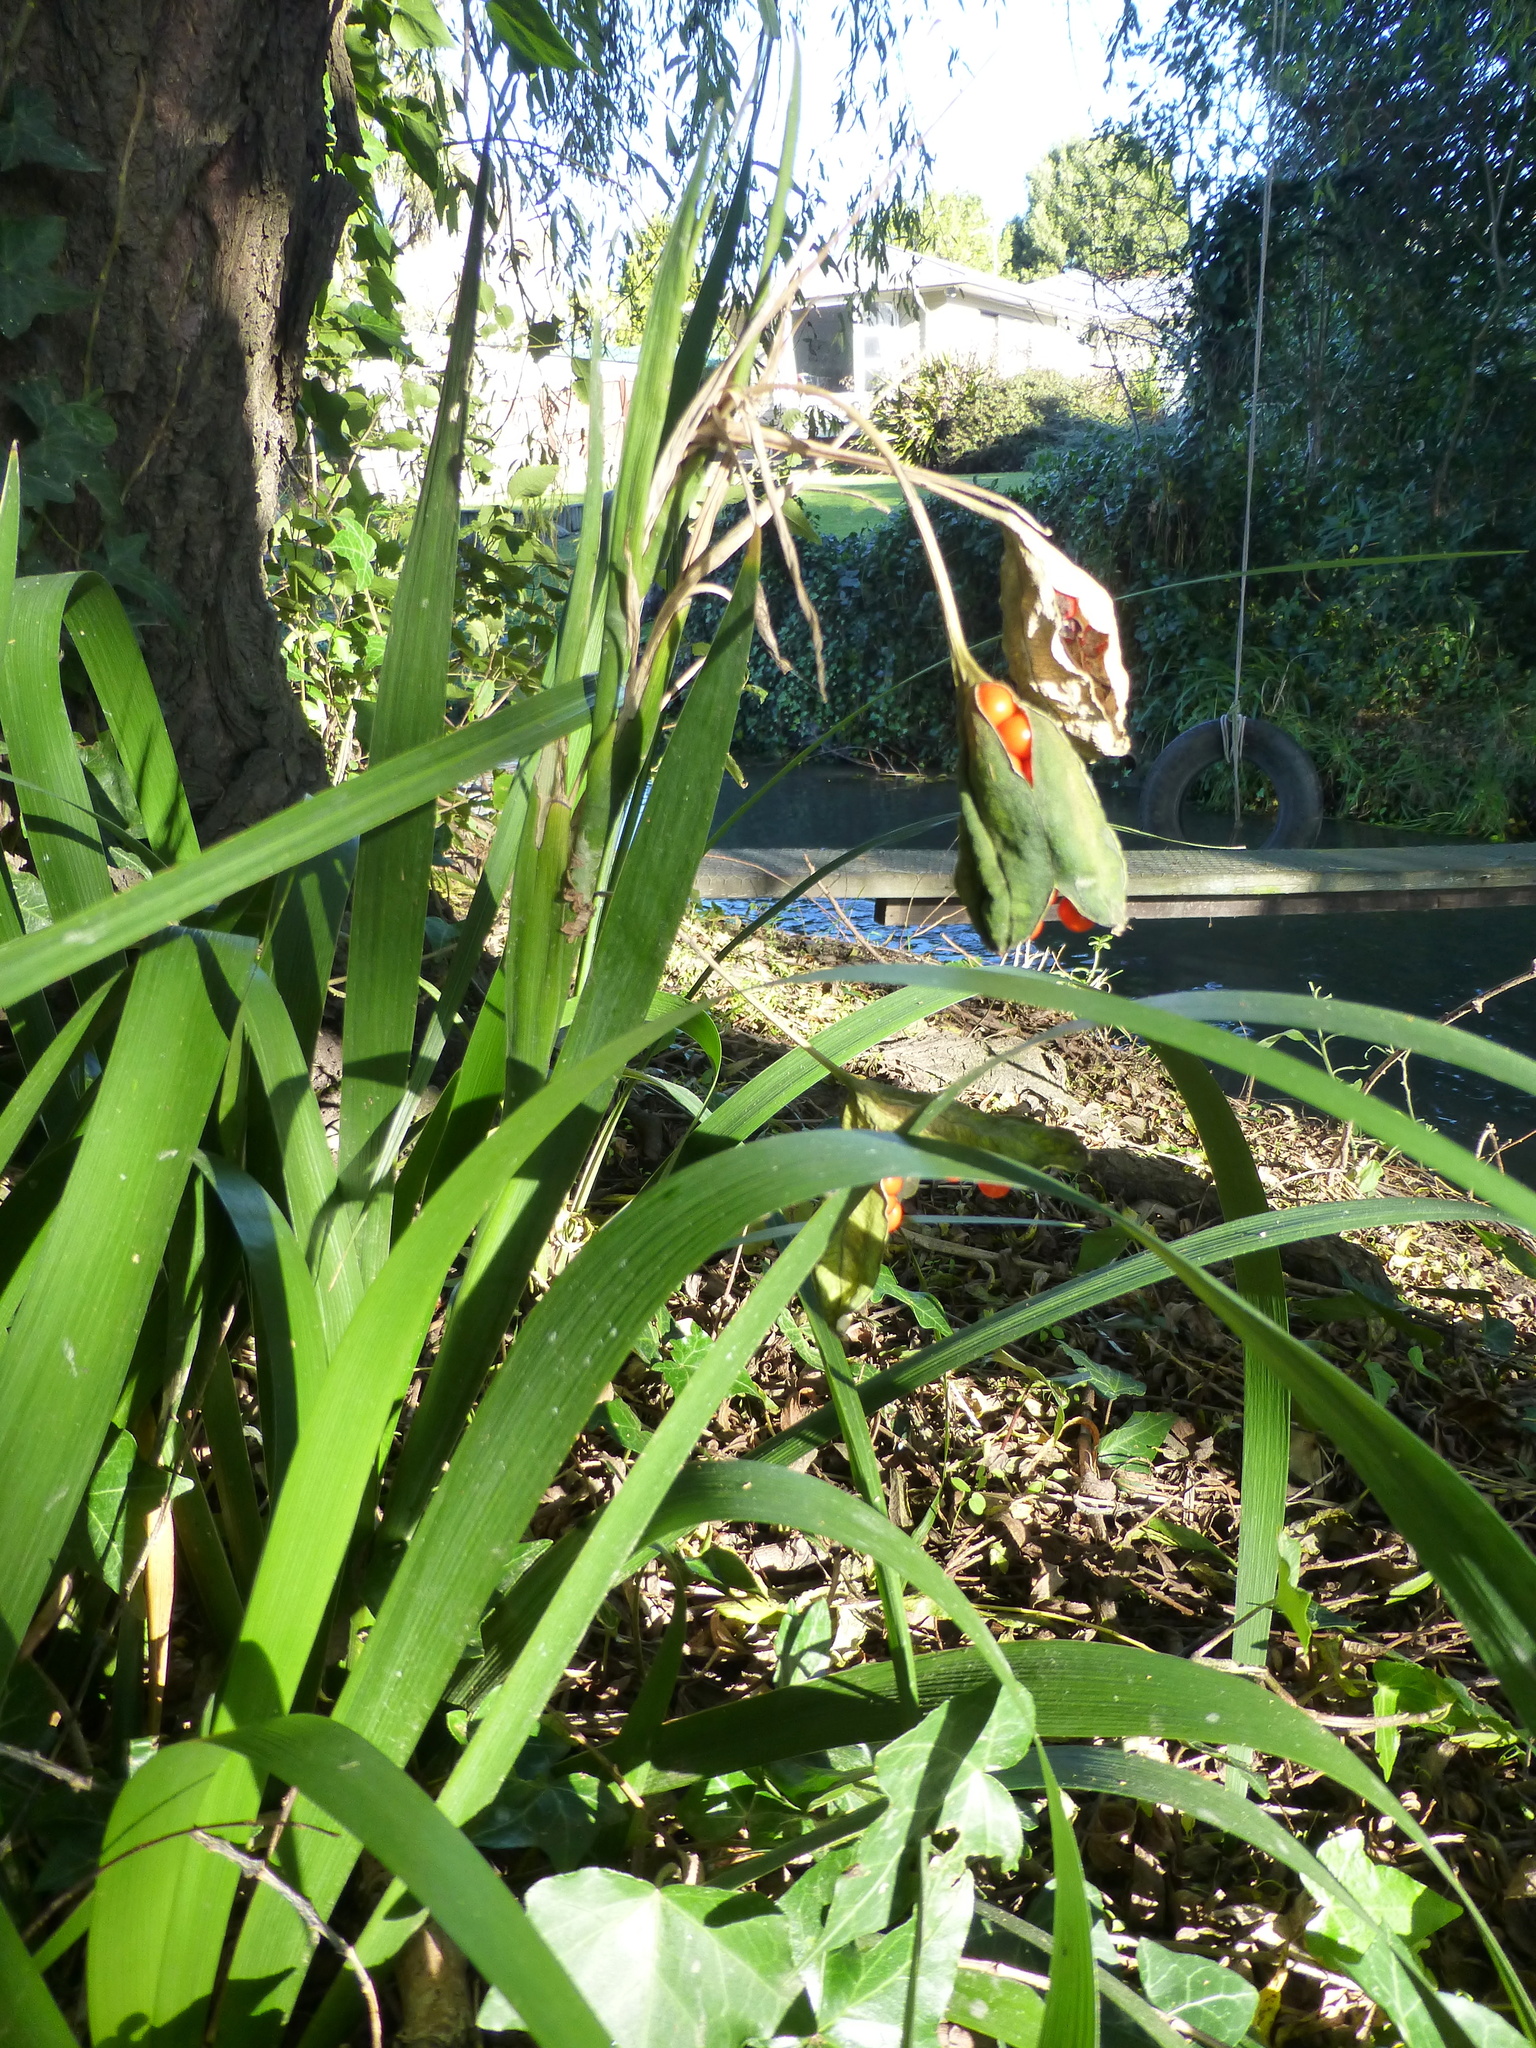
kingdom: Plantae
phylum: Tracheophyta
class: Liliopsida
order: Asparagales
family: Iridaceae
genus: Iris
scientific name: Iris foetidissima
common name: Stinking iris
